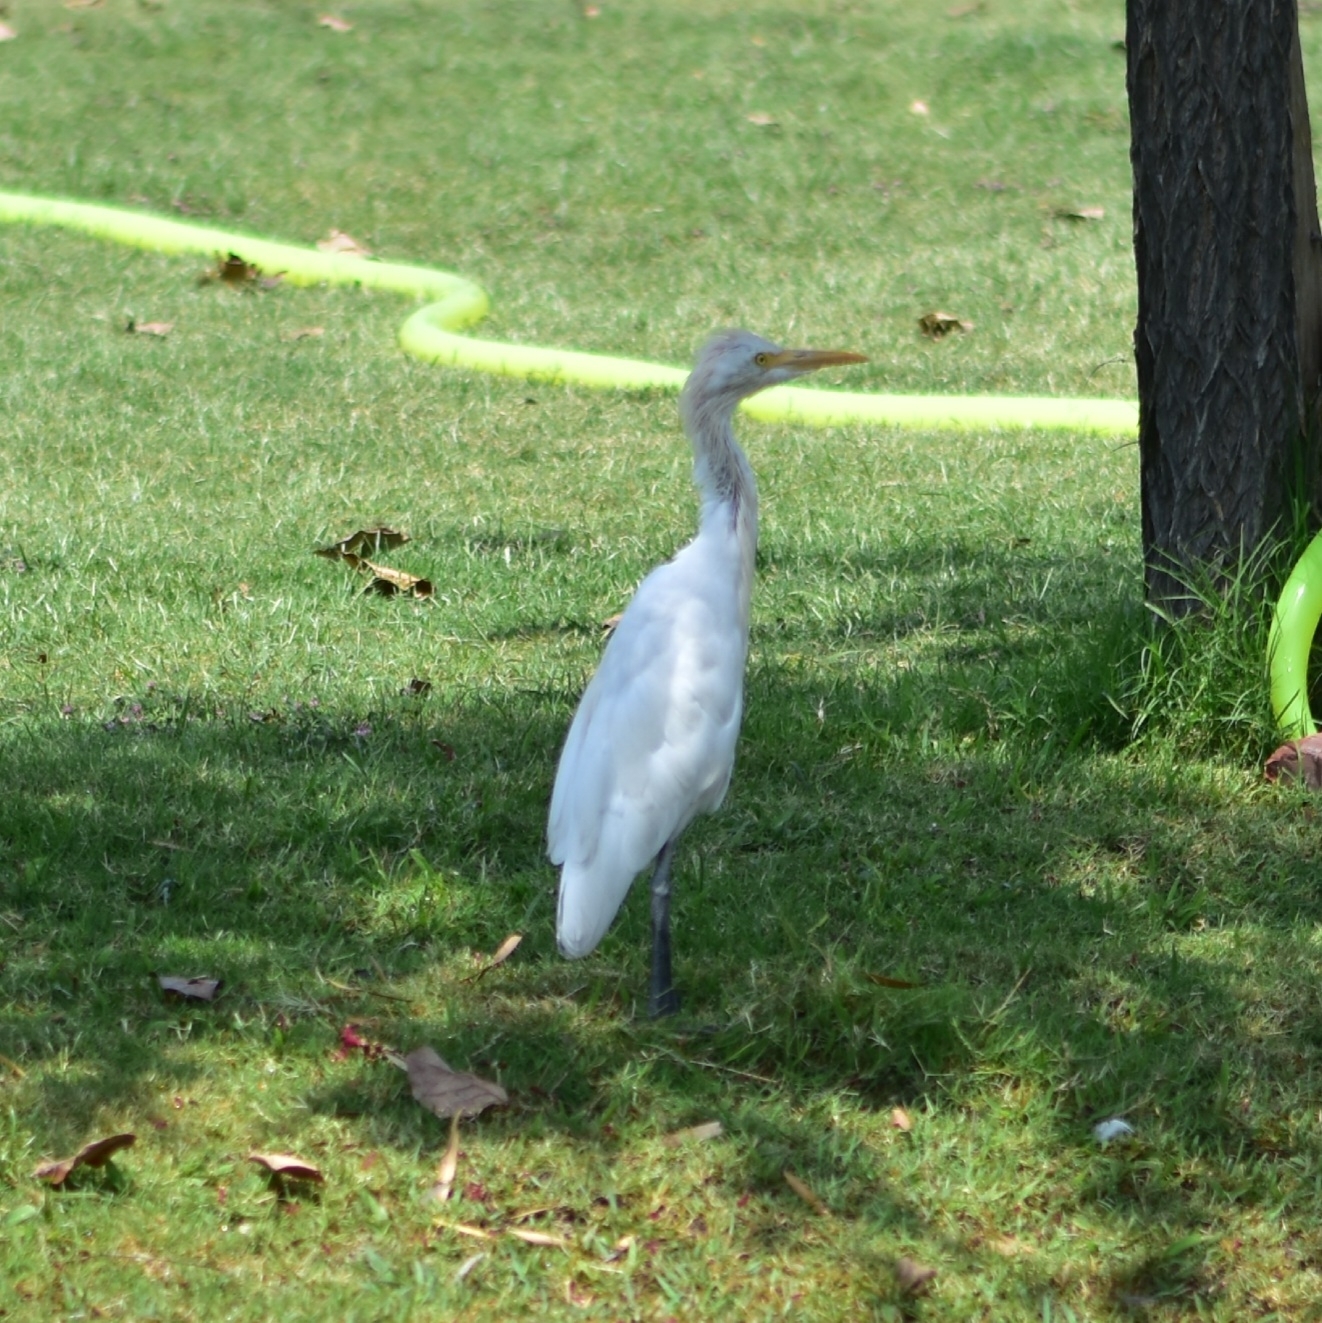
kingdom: Animalia
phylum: Chordata
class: Aves
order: Pelecaniformes
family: Ardeidae
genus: Bubulcus
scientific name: Bubulcus coromandus
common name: Eastern cattle egret
